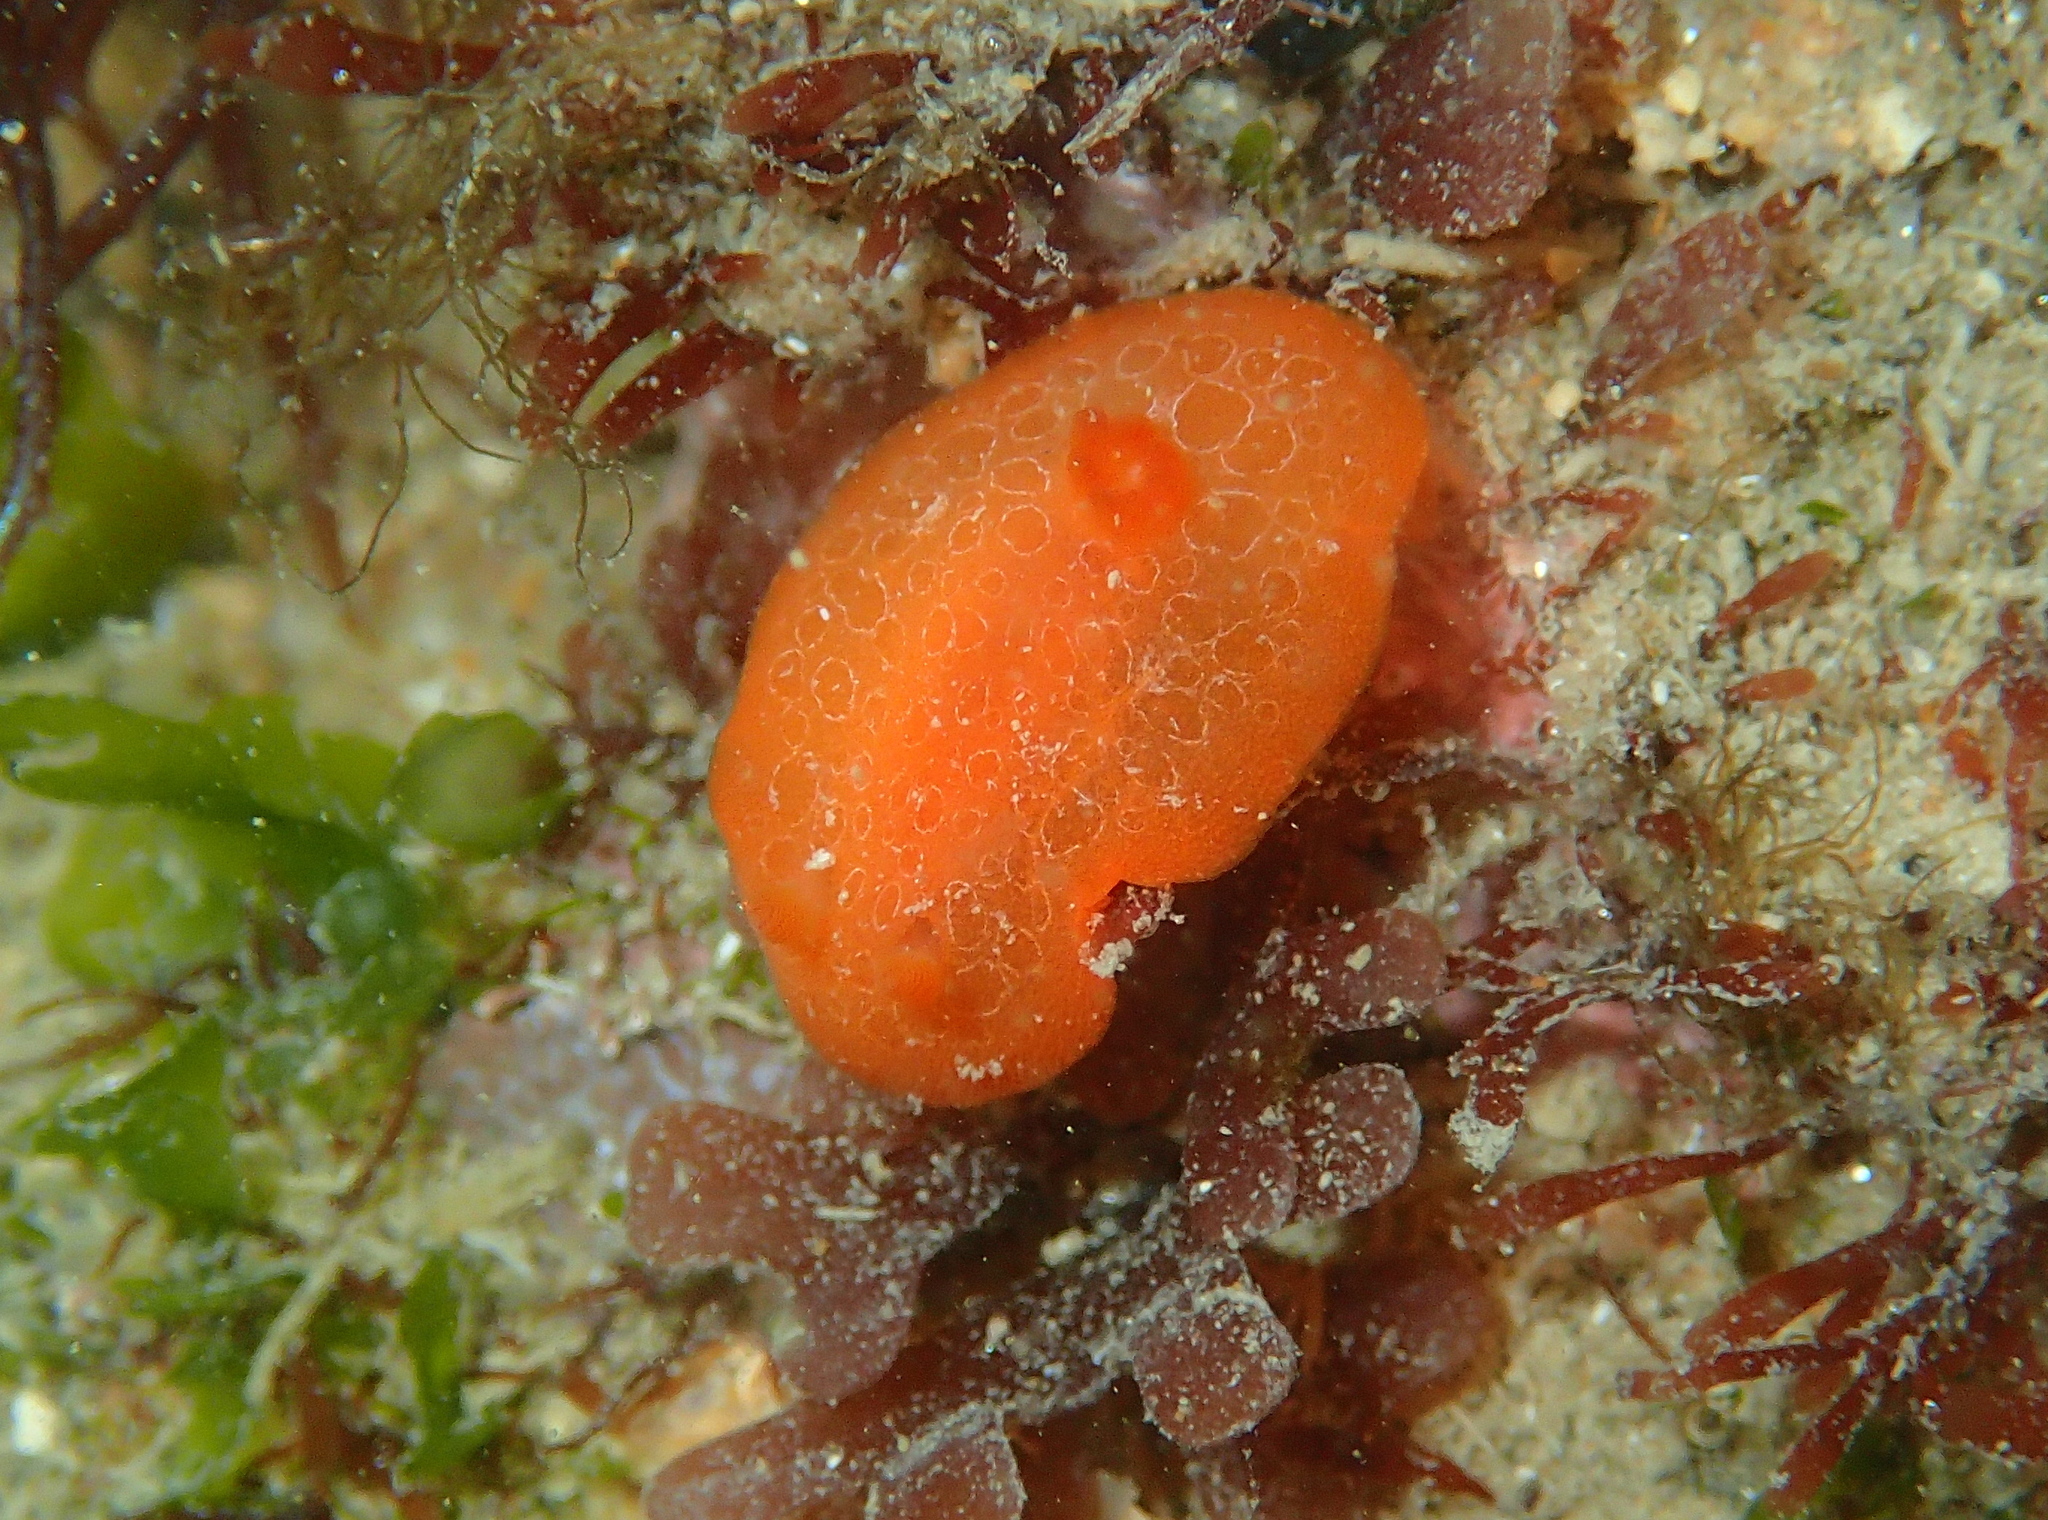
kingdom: Animalia
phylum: Mollusca
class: Gastropoda
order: Nudibranchia
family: Discodorididae
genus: Discodoris
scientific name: Discodoris rosi
